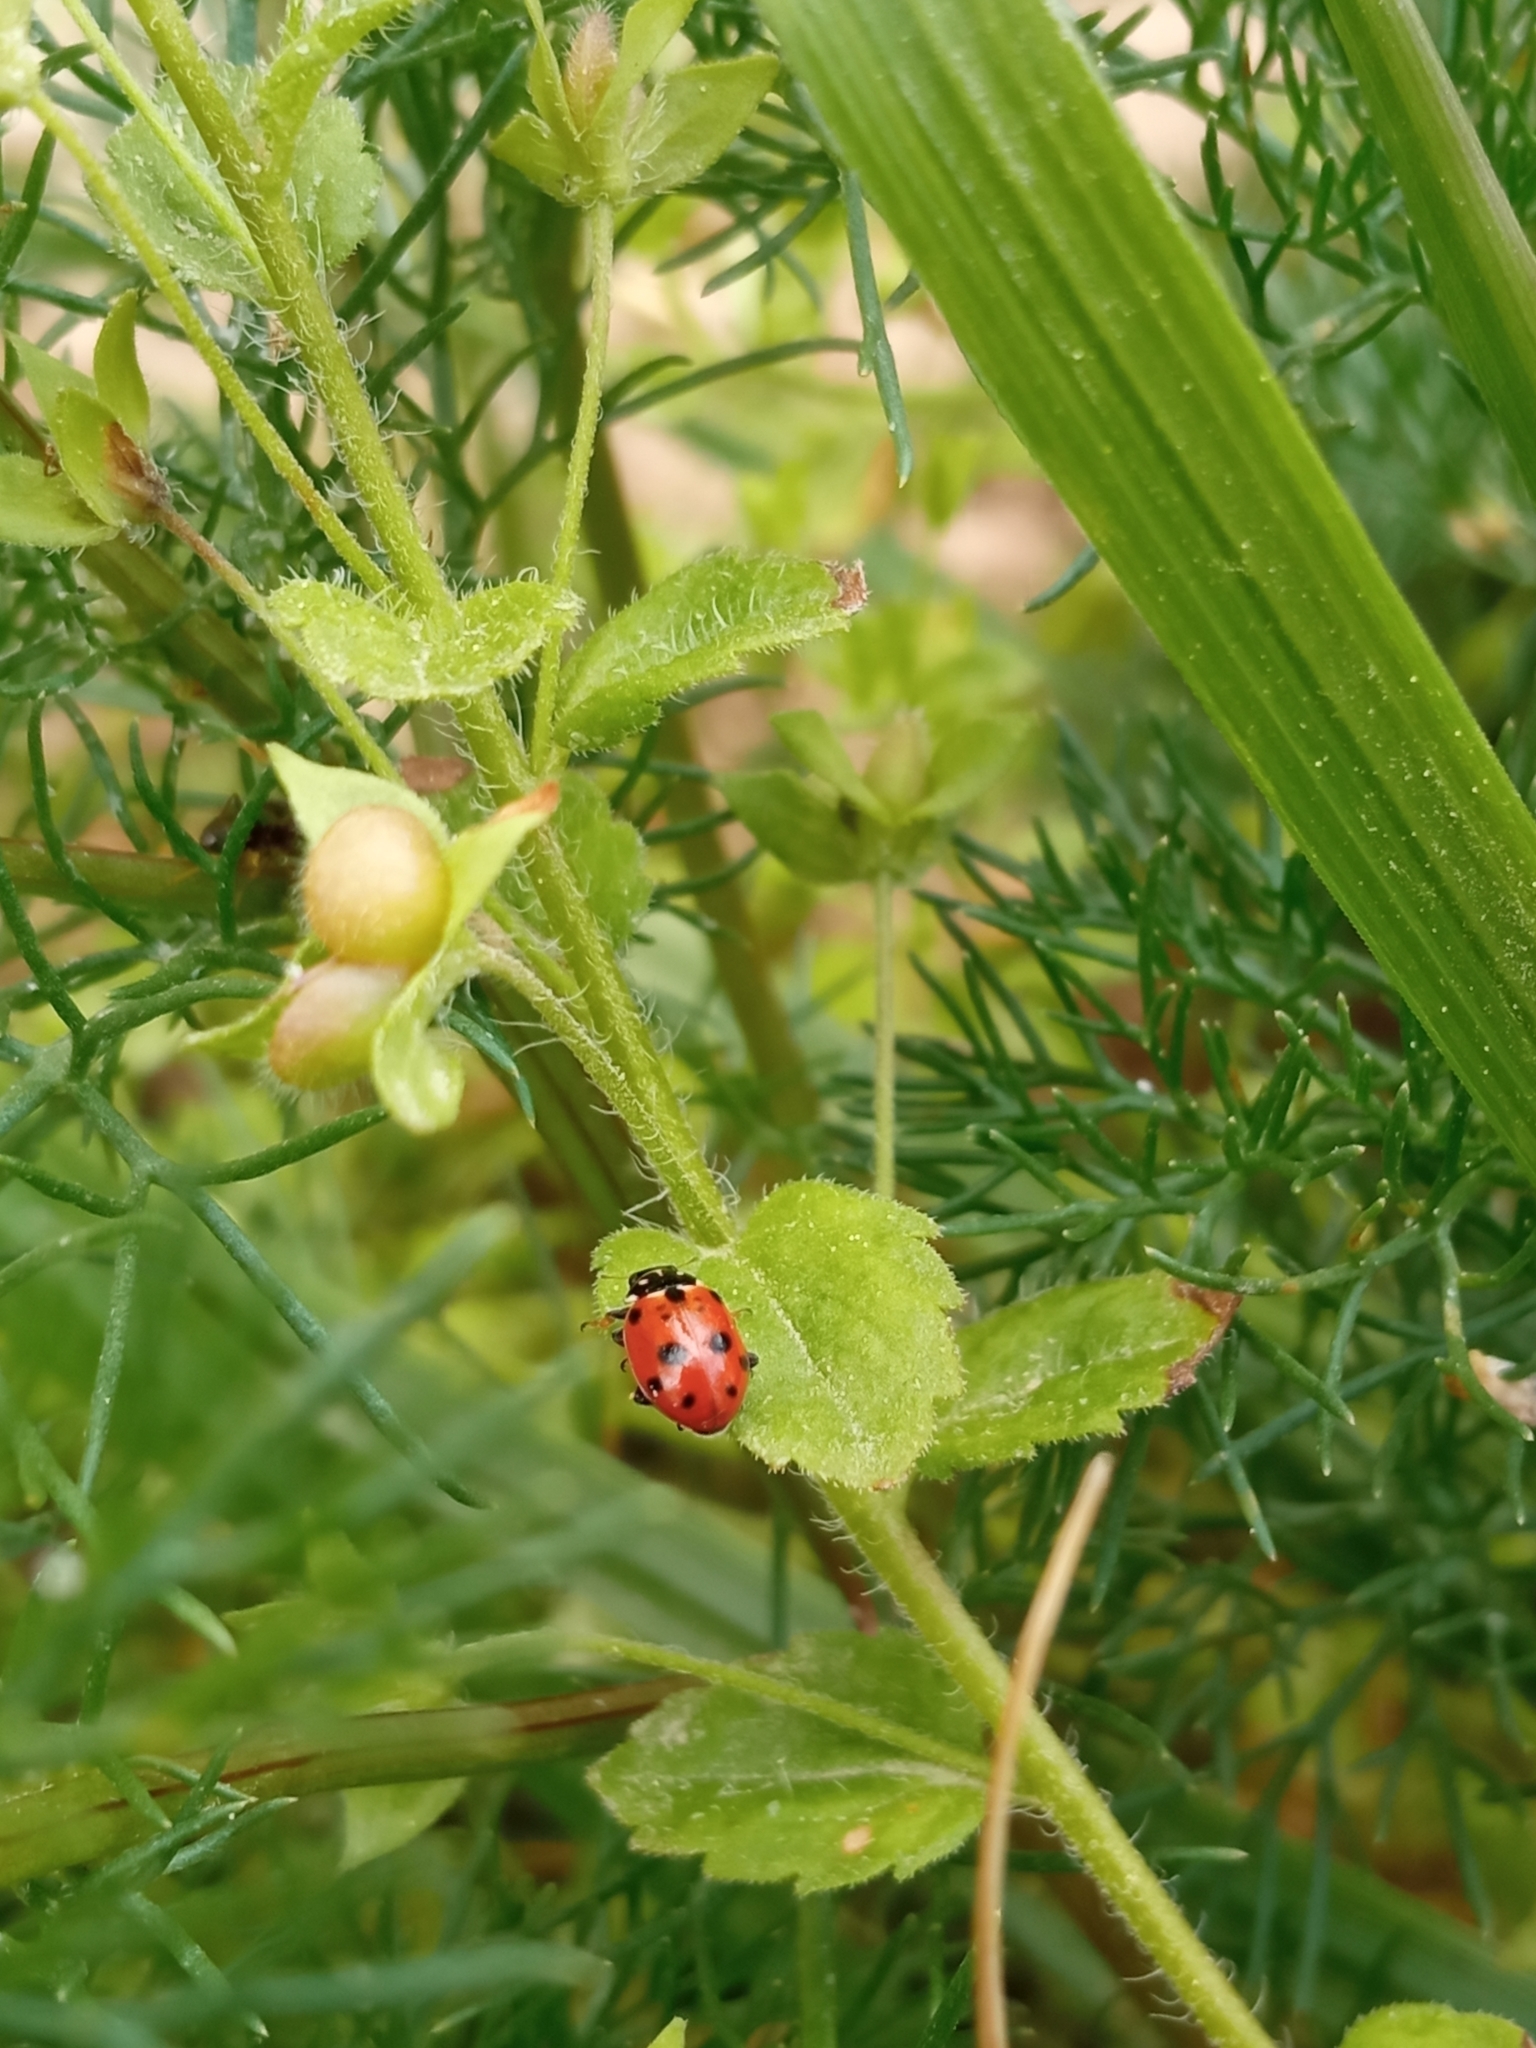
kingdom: Animalia
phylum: Arthropoda
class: Insecta
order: Coleoptera
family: Coccinellidae
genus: Hippodamia
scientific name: Hippodamia variegata
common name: Ladybird beetle
